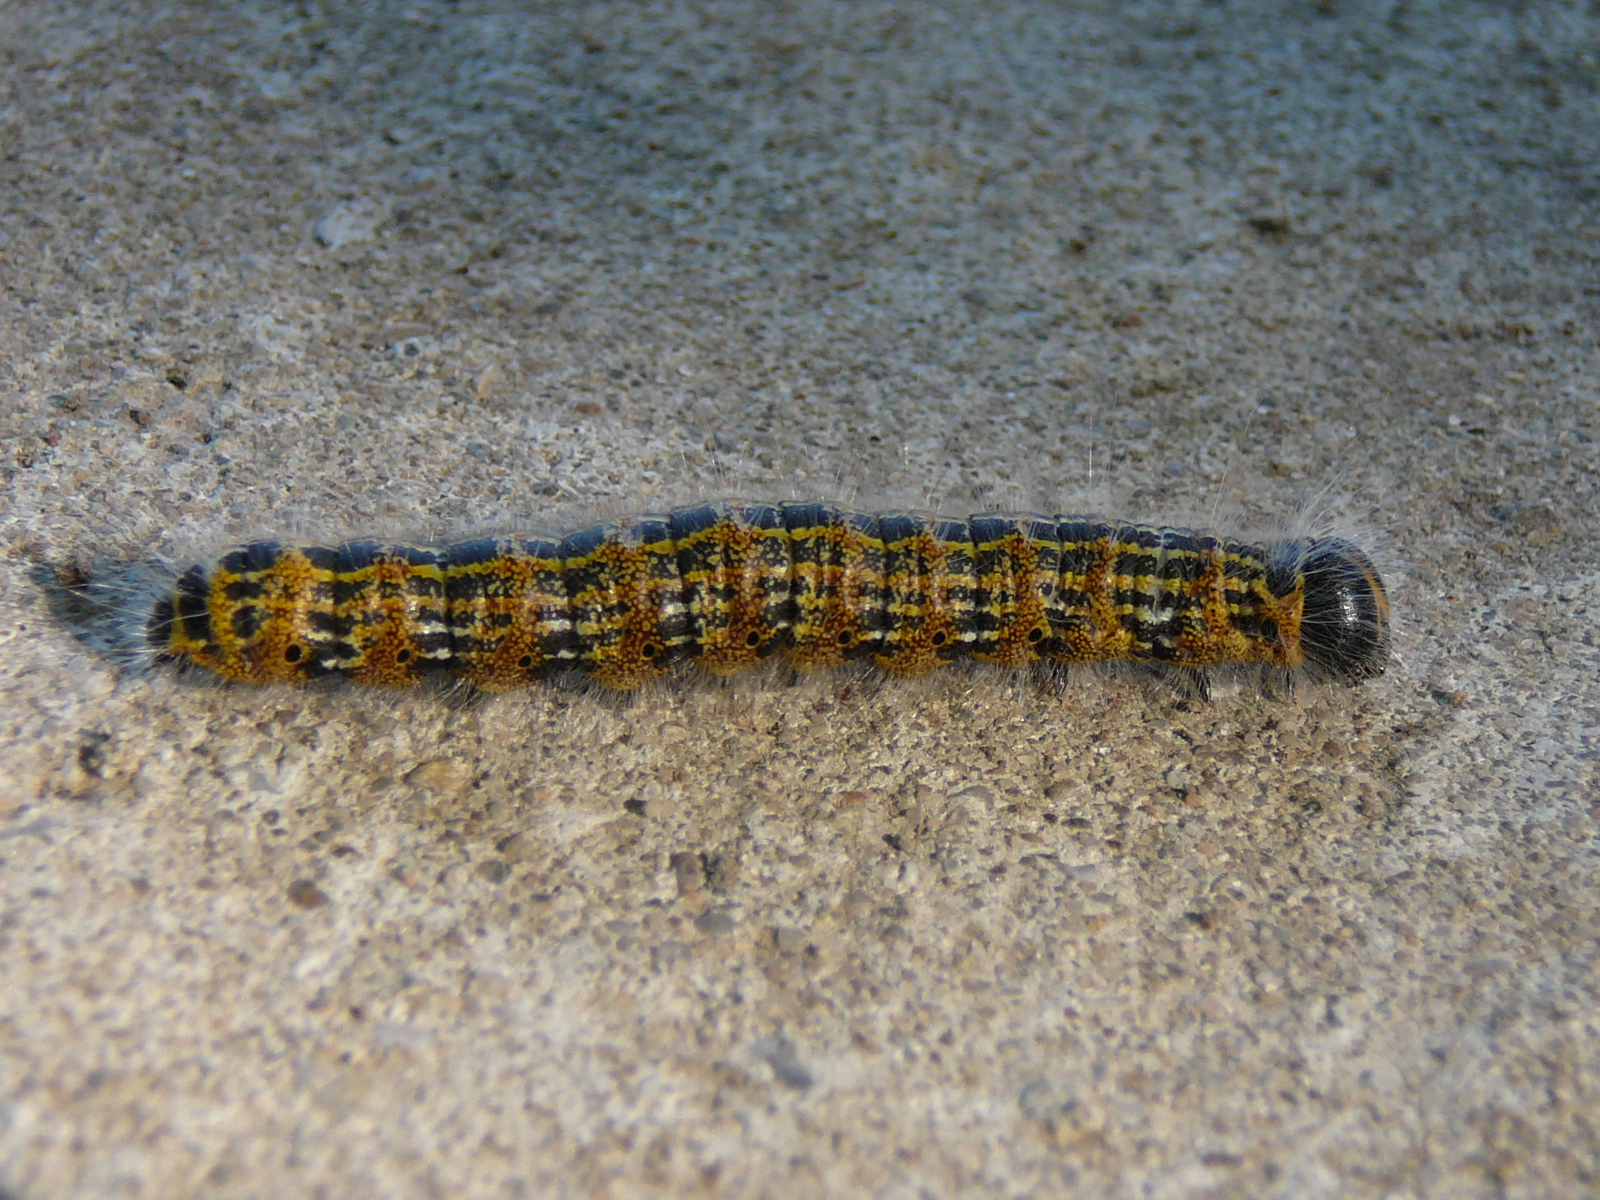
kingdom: Animalia
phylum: Arthropoda
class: Insecta
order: Lepidoptera
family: Notodontidae
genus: Phalera
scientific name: Phalera bucephala
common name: Buff-tip
